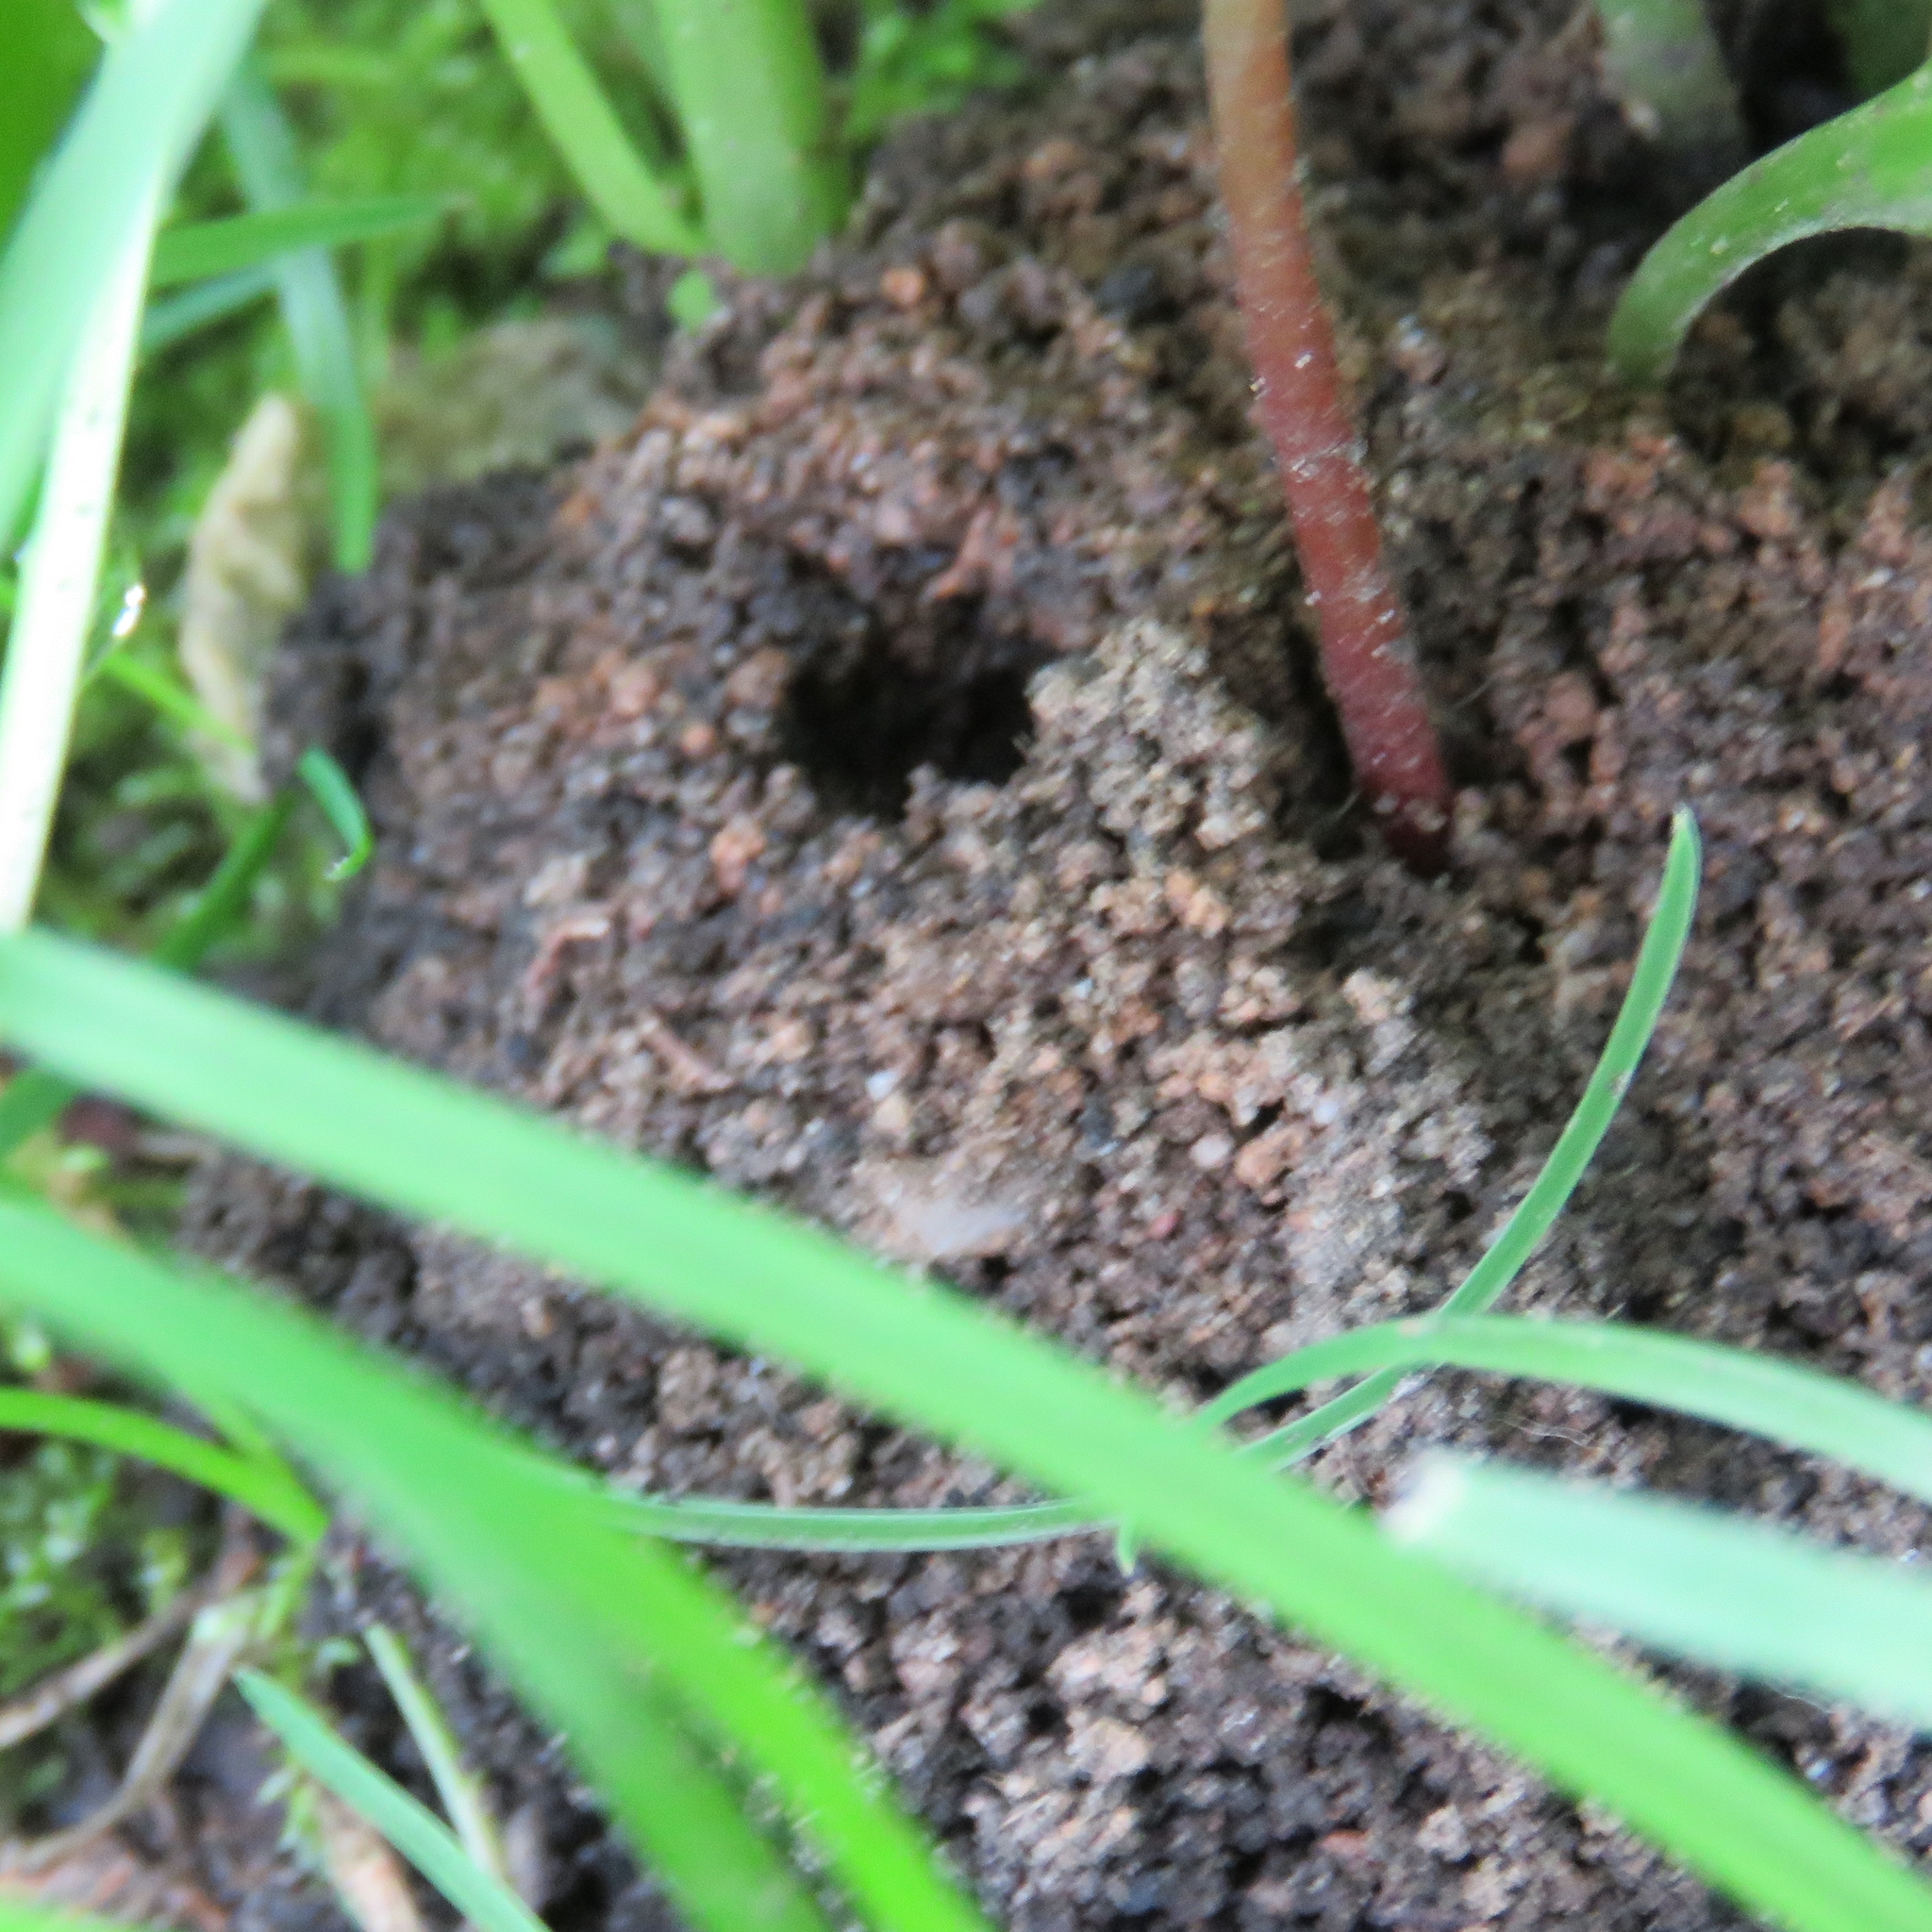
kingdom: Animalia
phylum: Arthropoda
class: Insecta
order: Hymenoptera
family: Andrenidae
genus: Andrena
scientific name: Andrena fulva
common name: Tawny mining bee
